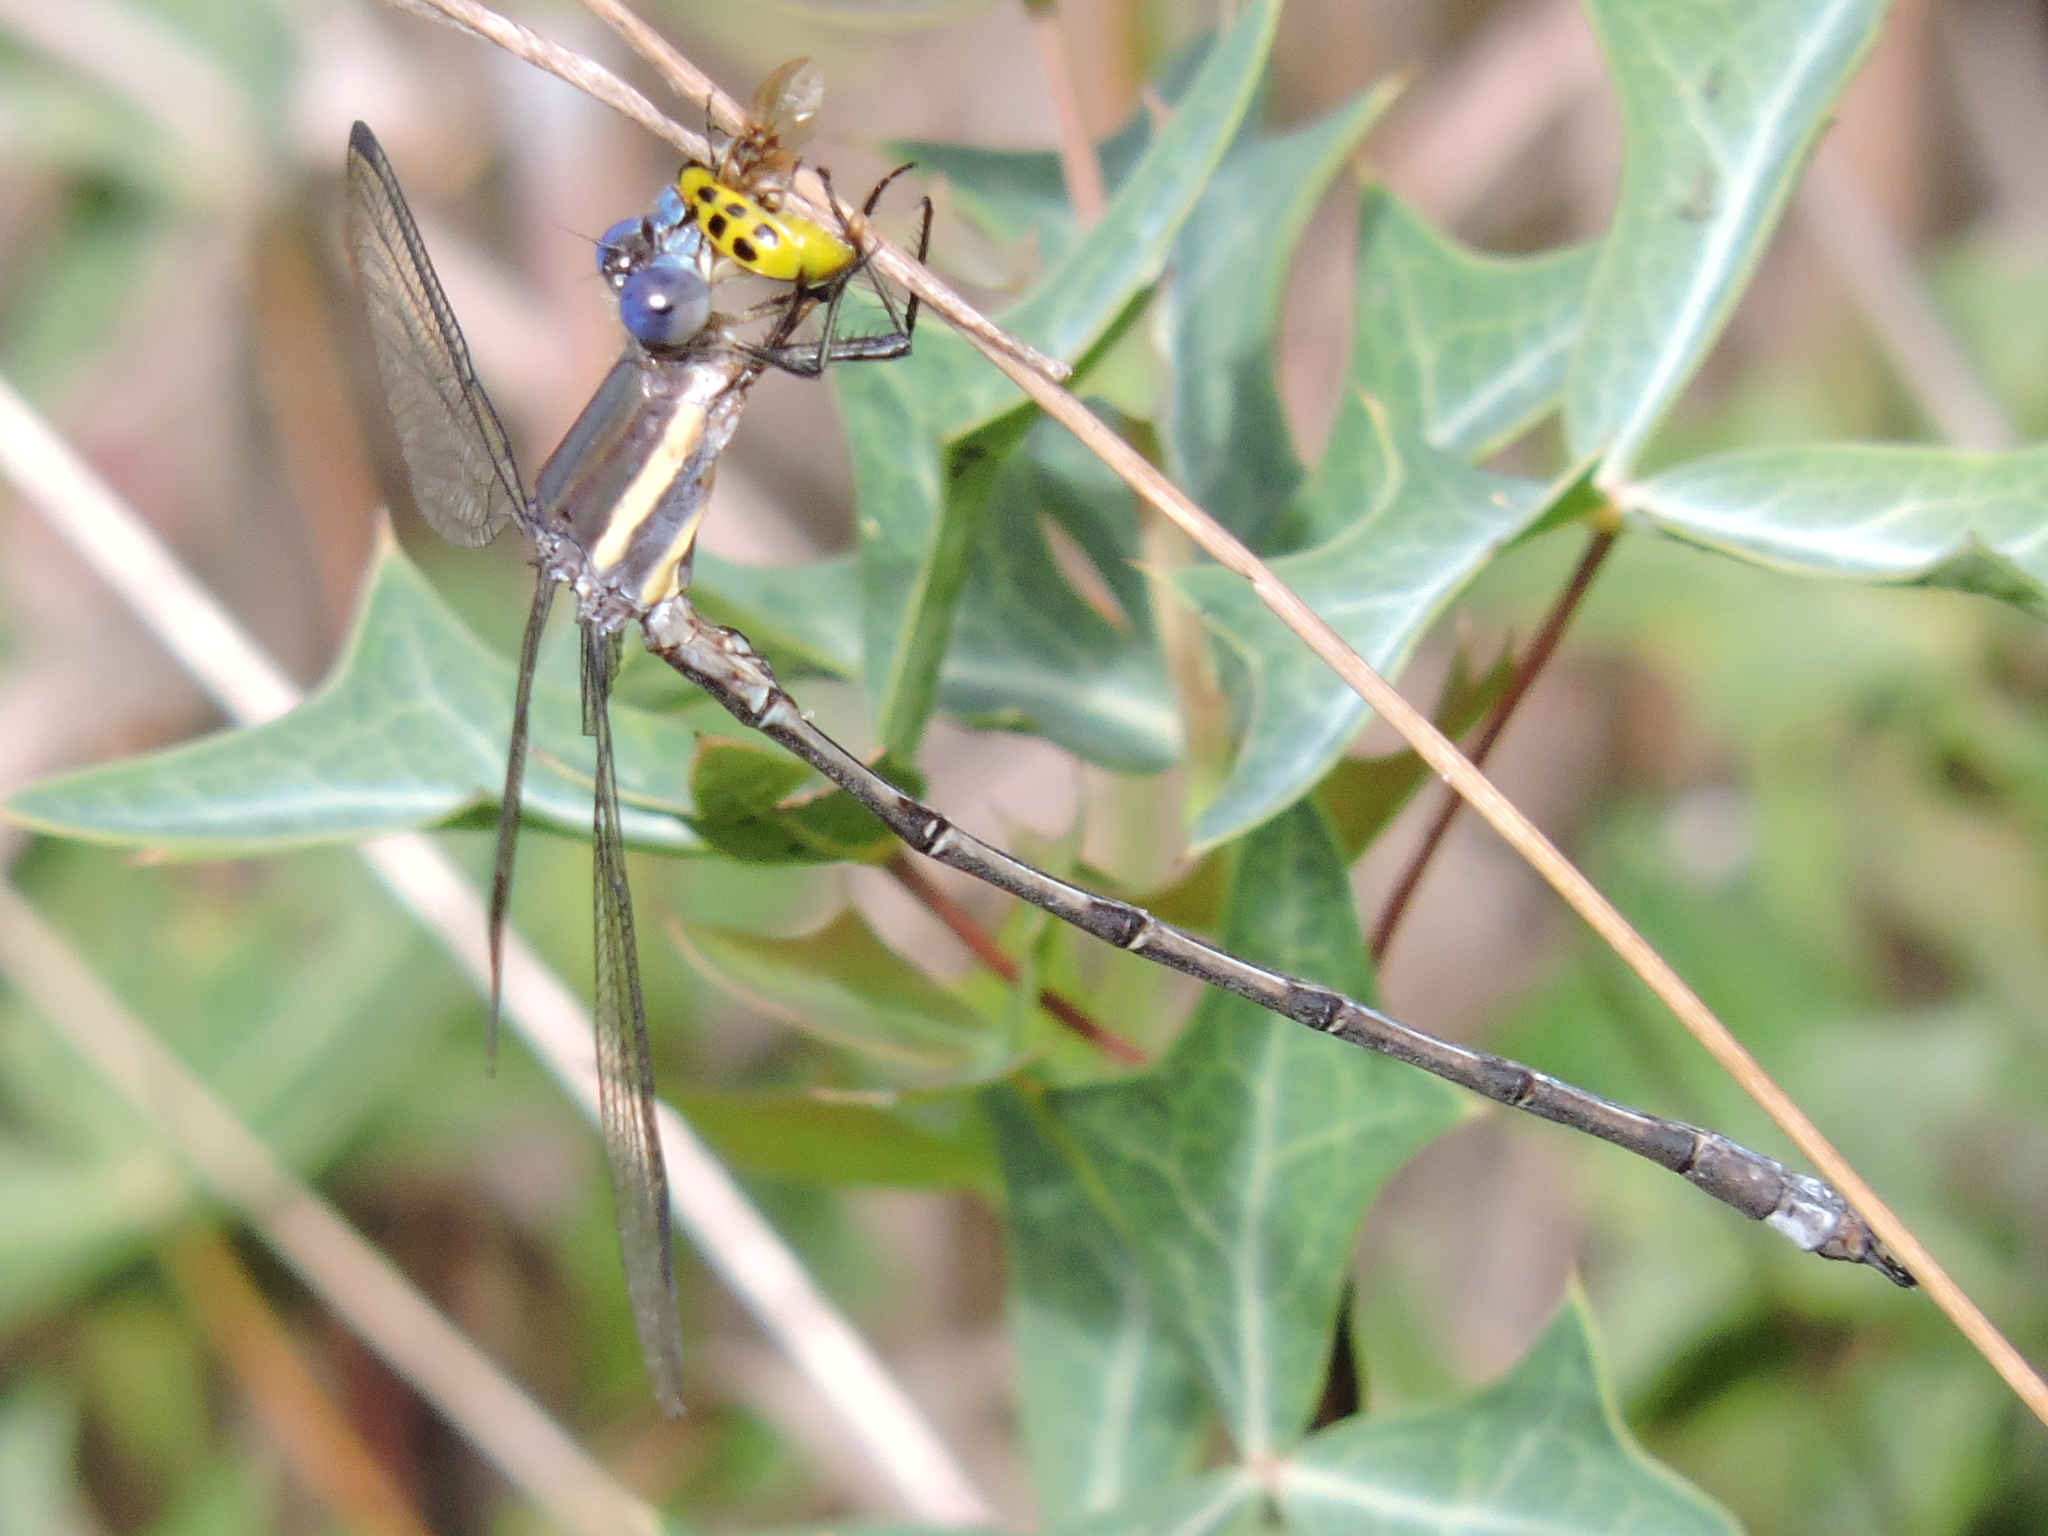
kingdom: Animalia
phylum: Arthropoda
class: Insecta
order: Odonata
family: Lestidae
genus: Archilestes
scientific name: Archilestes grandis
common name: Great spreadwing
